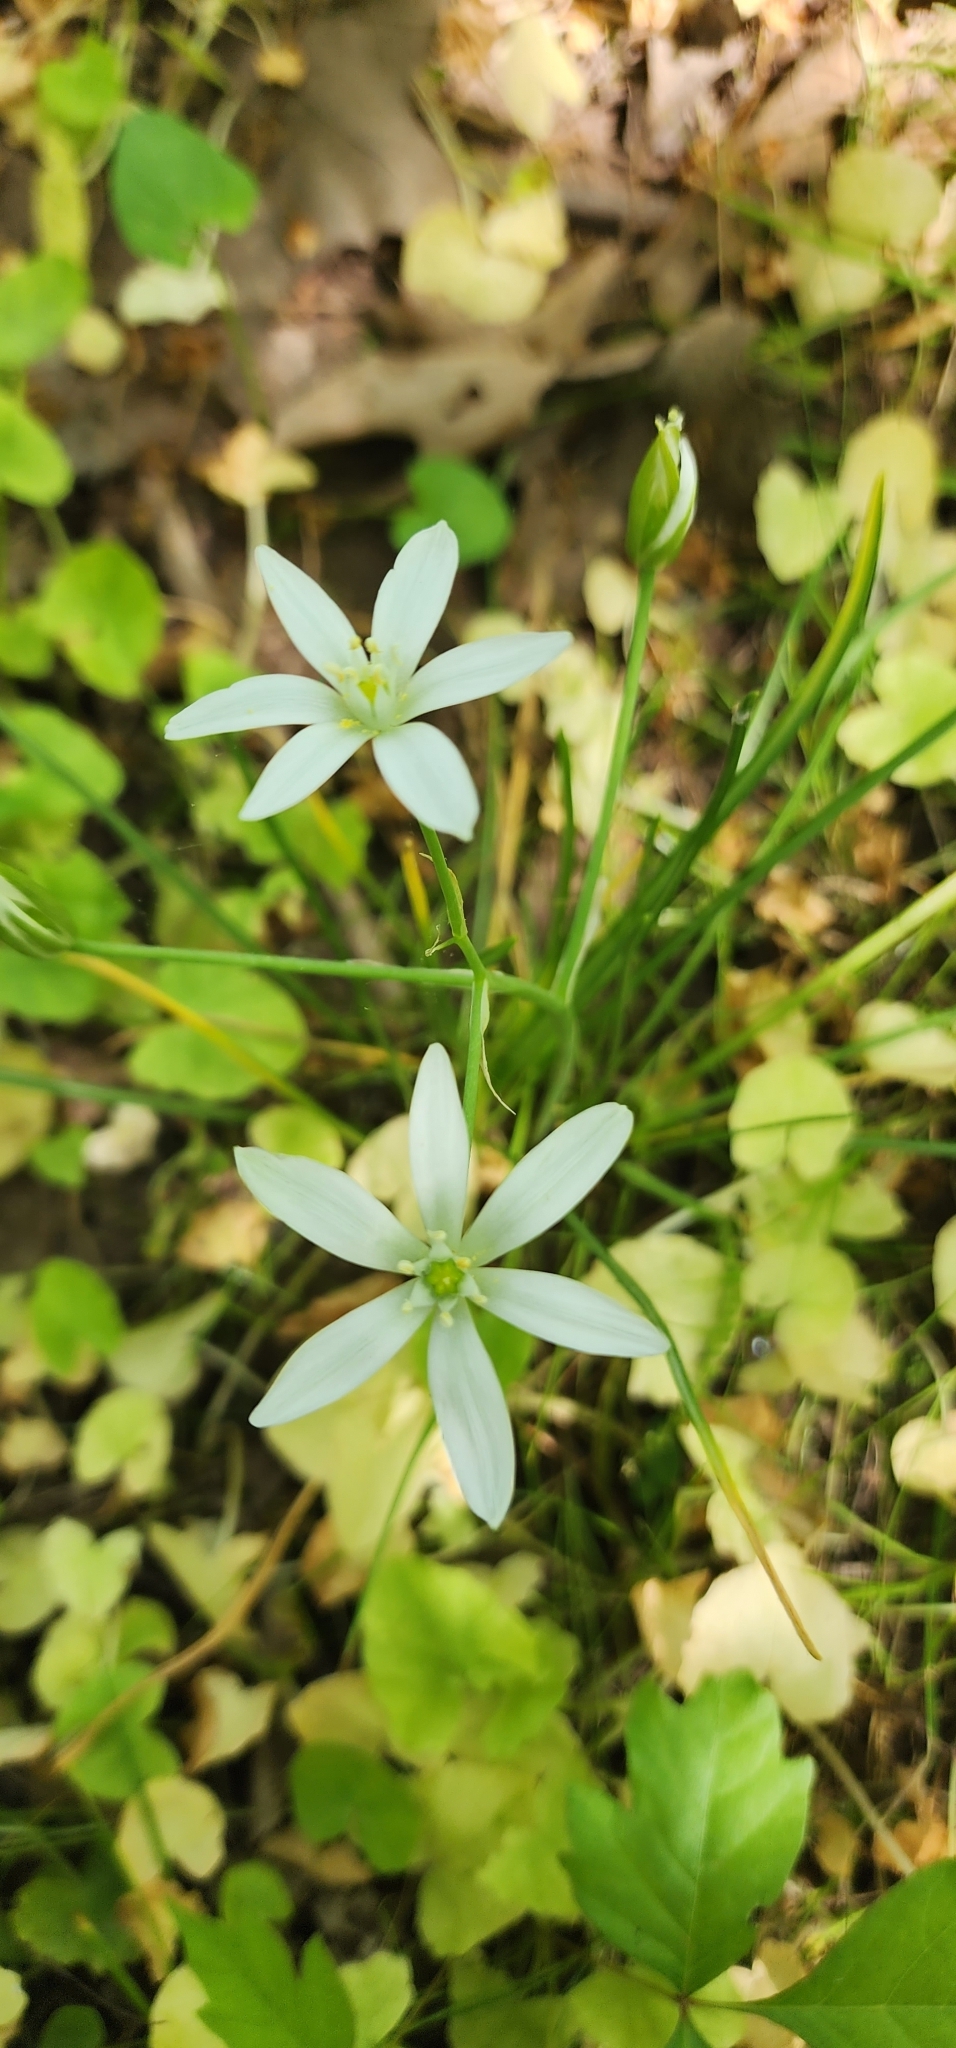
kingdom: Plantae
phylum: Tracheophyta
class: Liliopsida
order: Asparagales
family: Asparagaceae
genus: Ornithogalum
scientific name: Ornithogalum umbellatum
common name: Garden star-of-bethlehem
